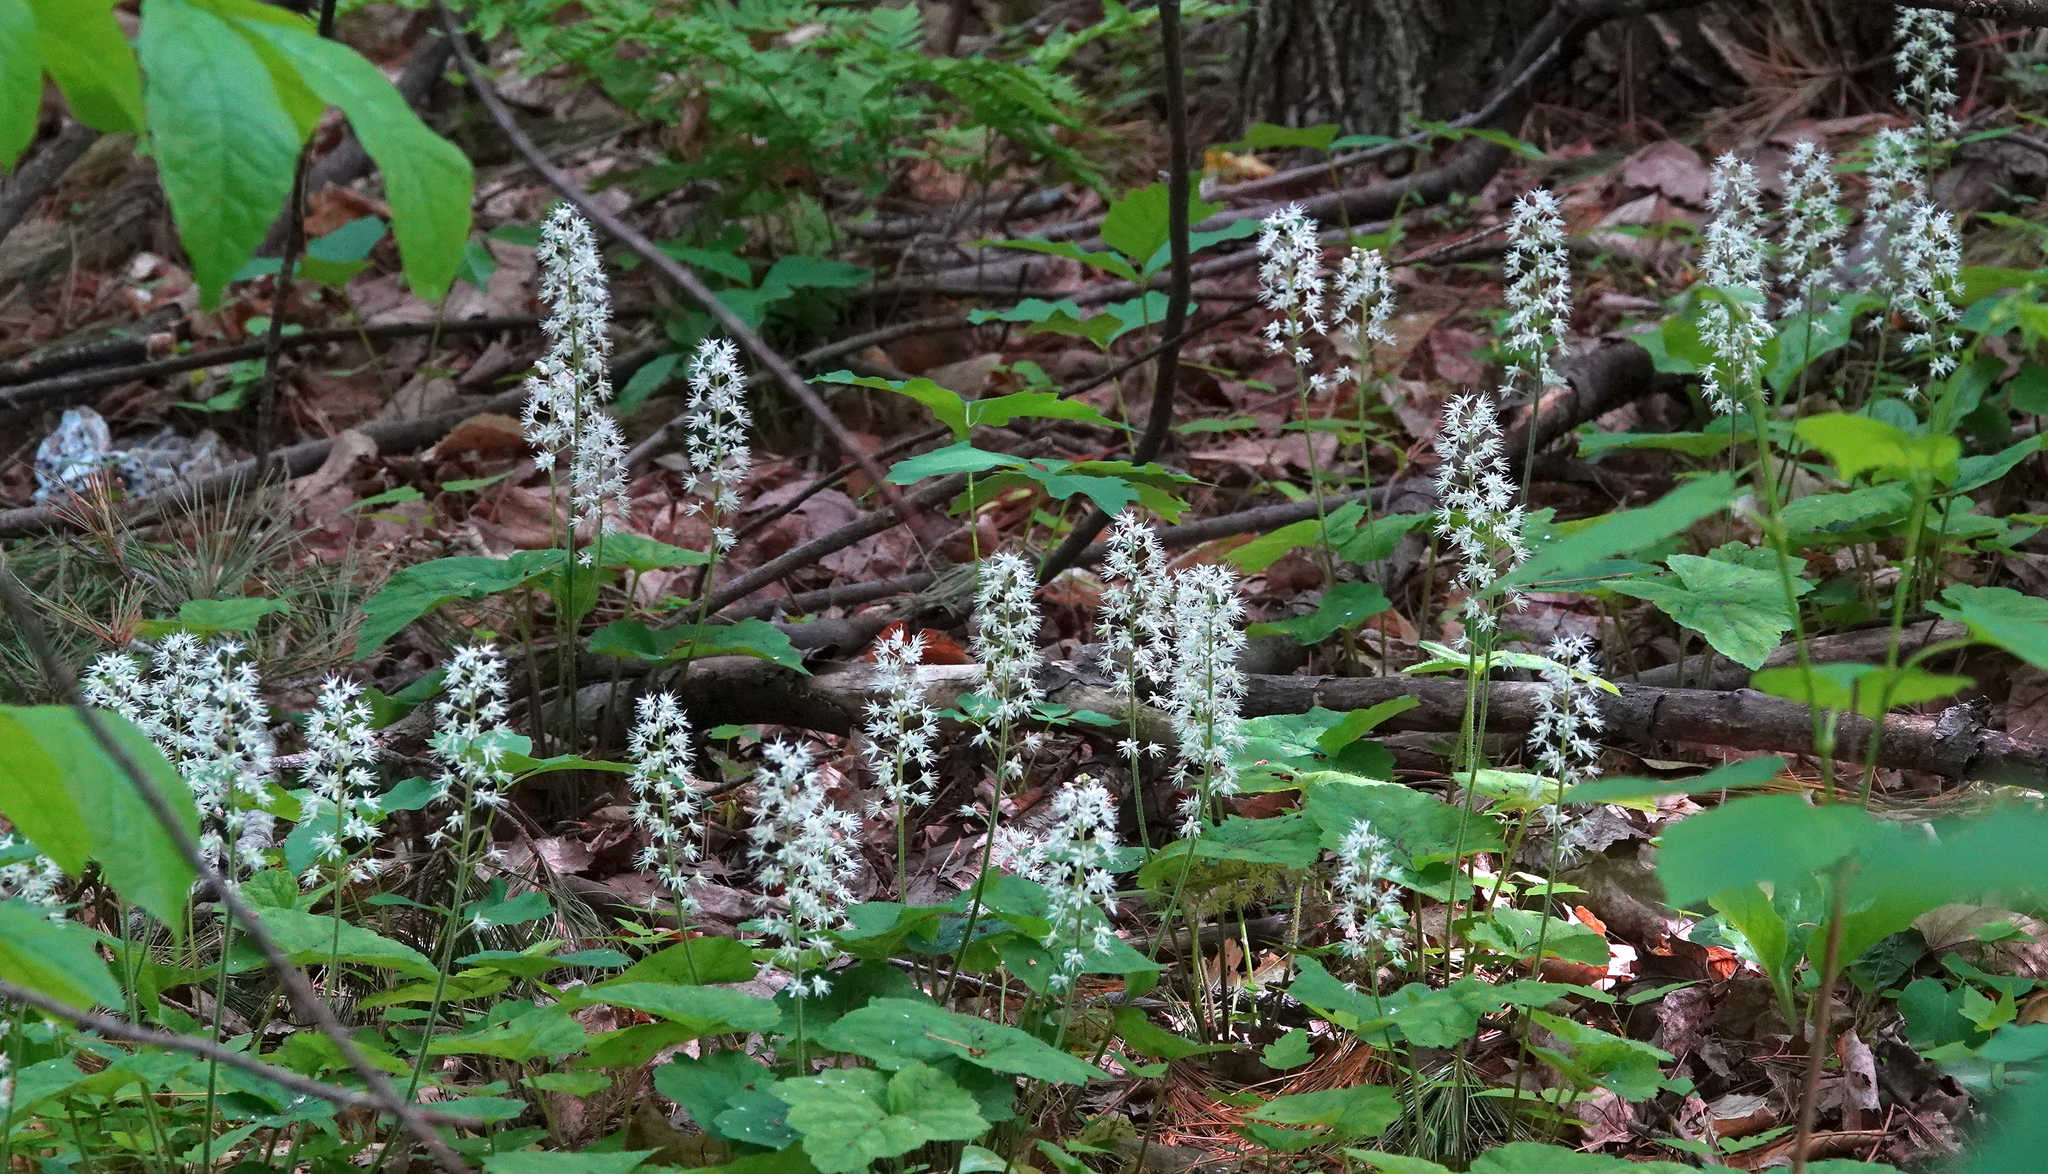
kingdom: Plantae
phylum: Tracheophyta
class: Magnoliopsida
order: Saxifragales
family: Saxifragaceae
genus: Tiarella
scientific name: Tiarella stolonifera
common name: Stoloniferous foamflower
